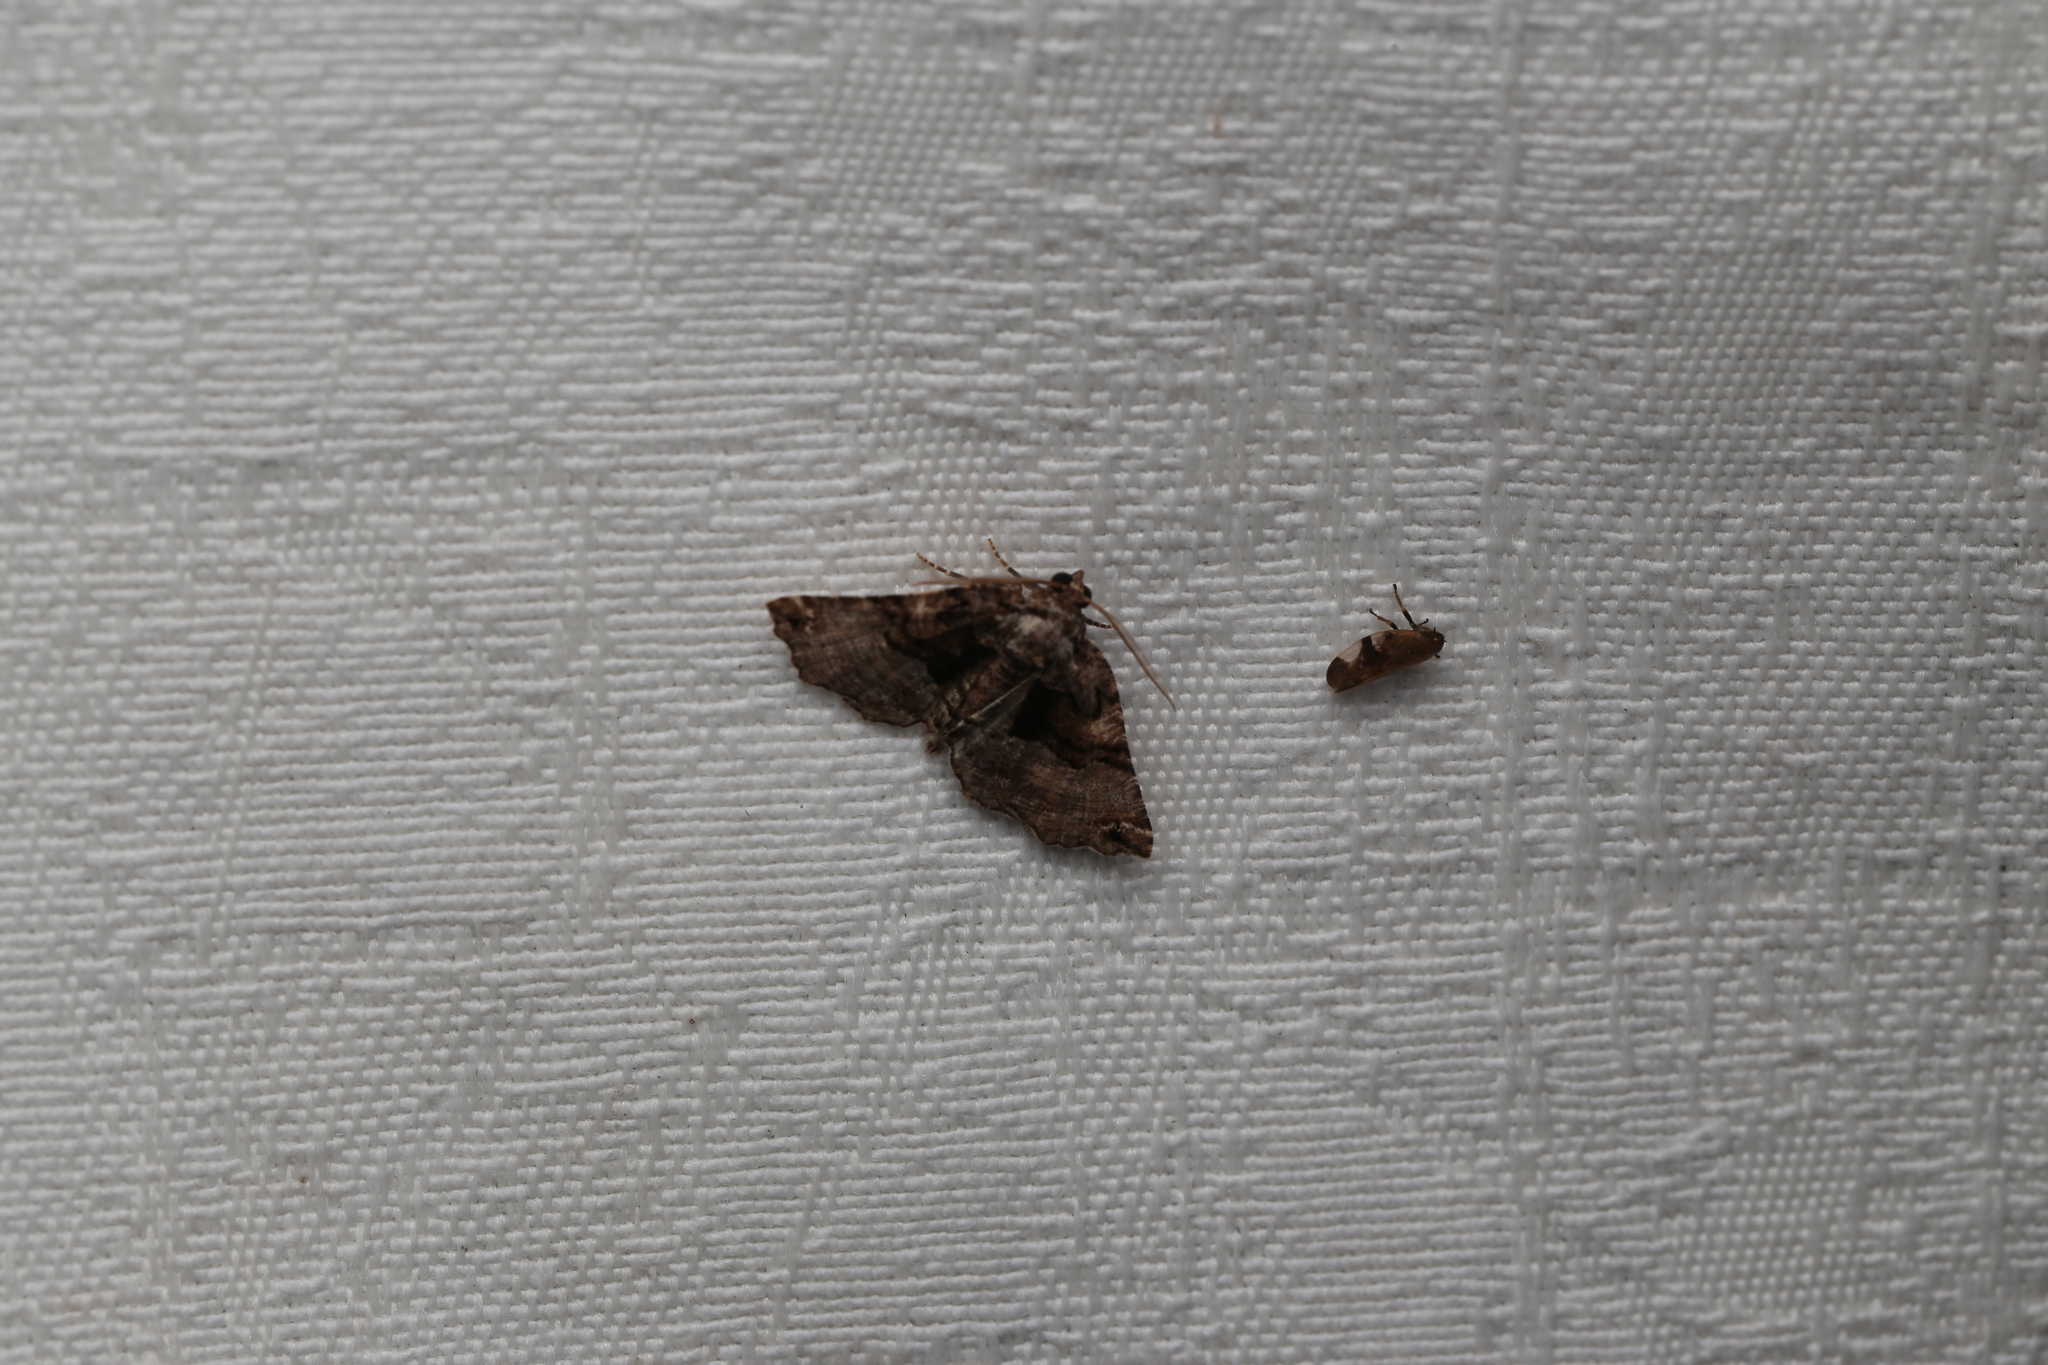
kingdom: Animalia
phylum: Arthropoda
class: Insecta
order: Lepidoptera
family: Geometridae
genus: Campaea
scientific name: Campaea Metrocampa celaenephes
